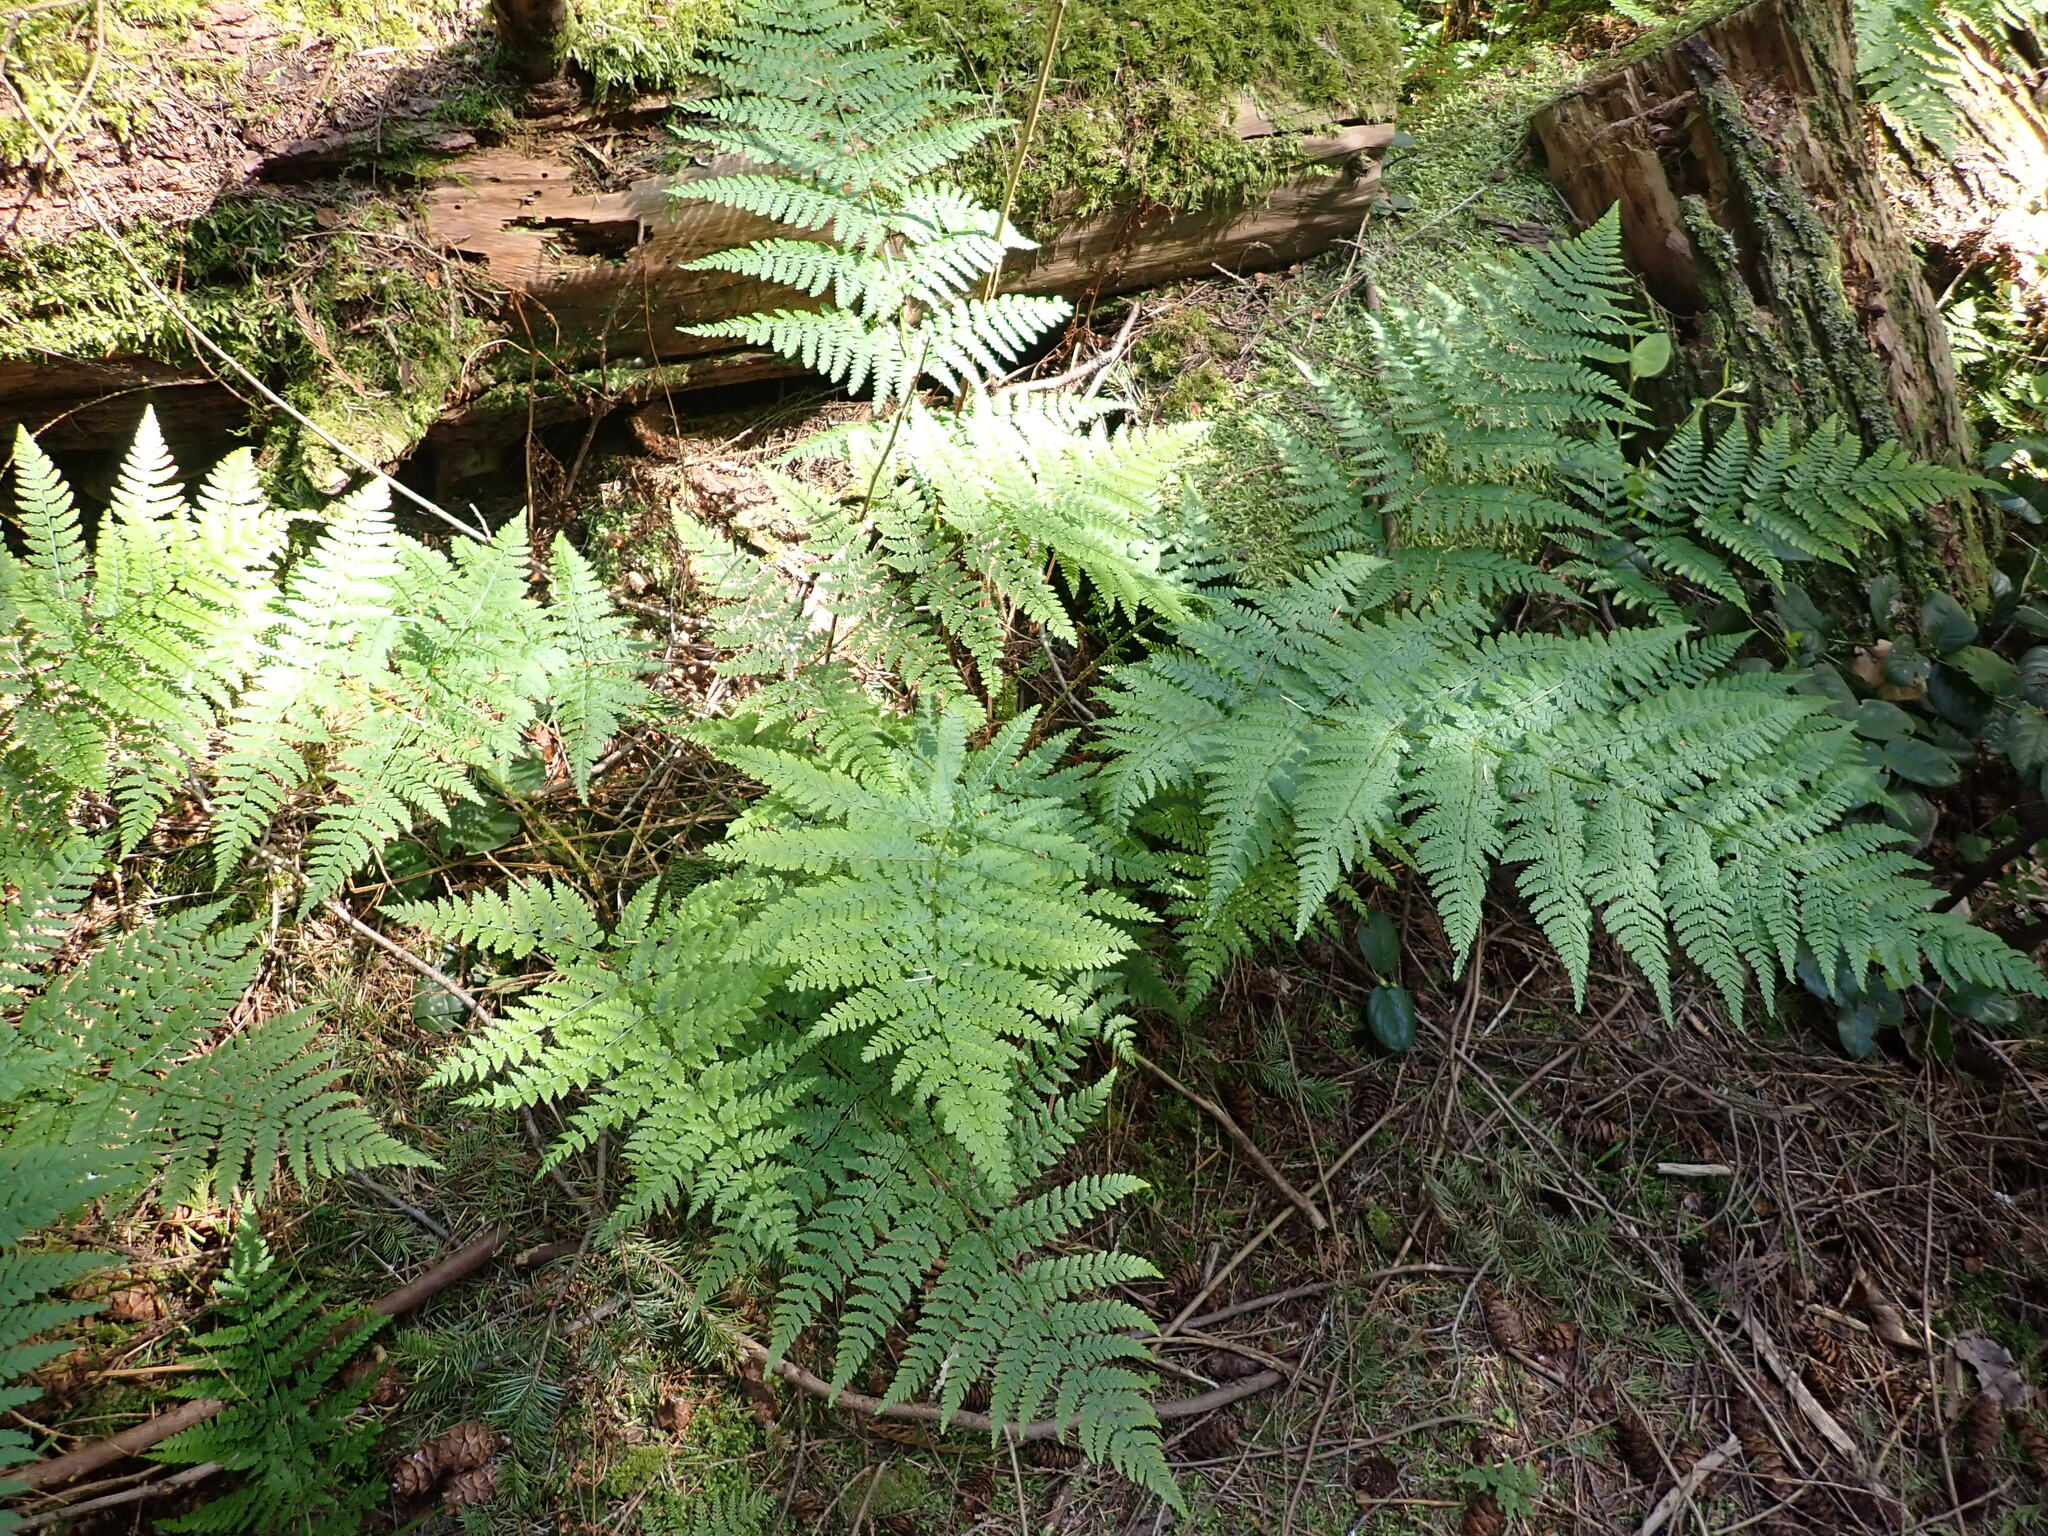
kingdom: Plantae
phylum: Tracheophyta
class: Polypodiopsida
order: Polypodiales
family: Dryopteridaceae
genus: Dryopteris
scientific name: Dryopteris expansa
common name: Northern buckler fern
